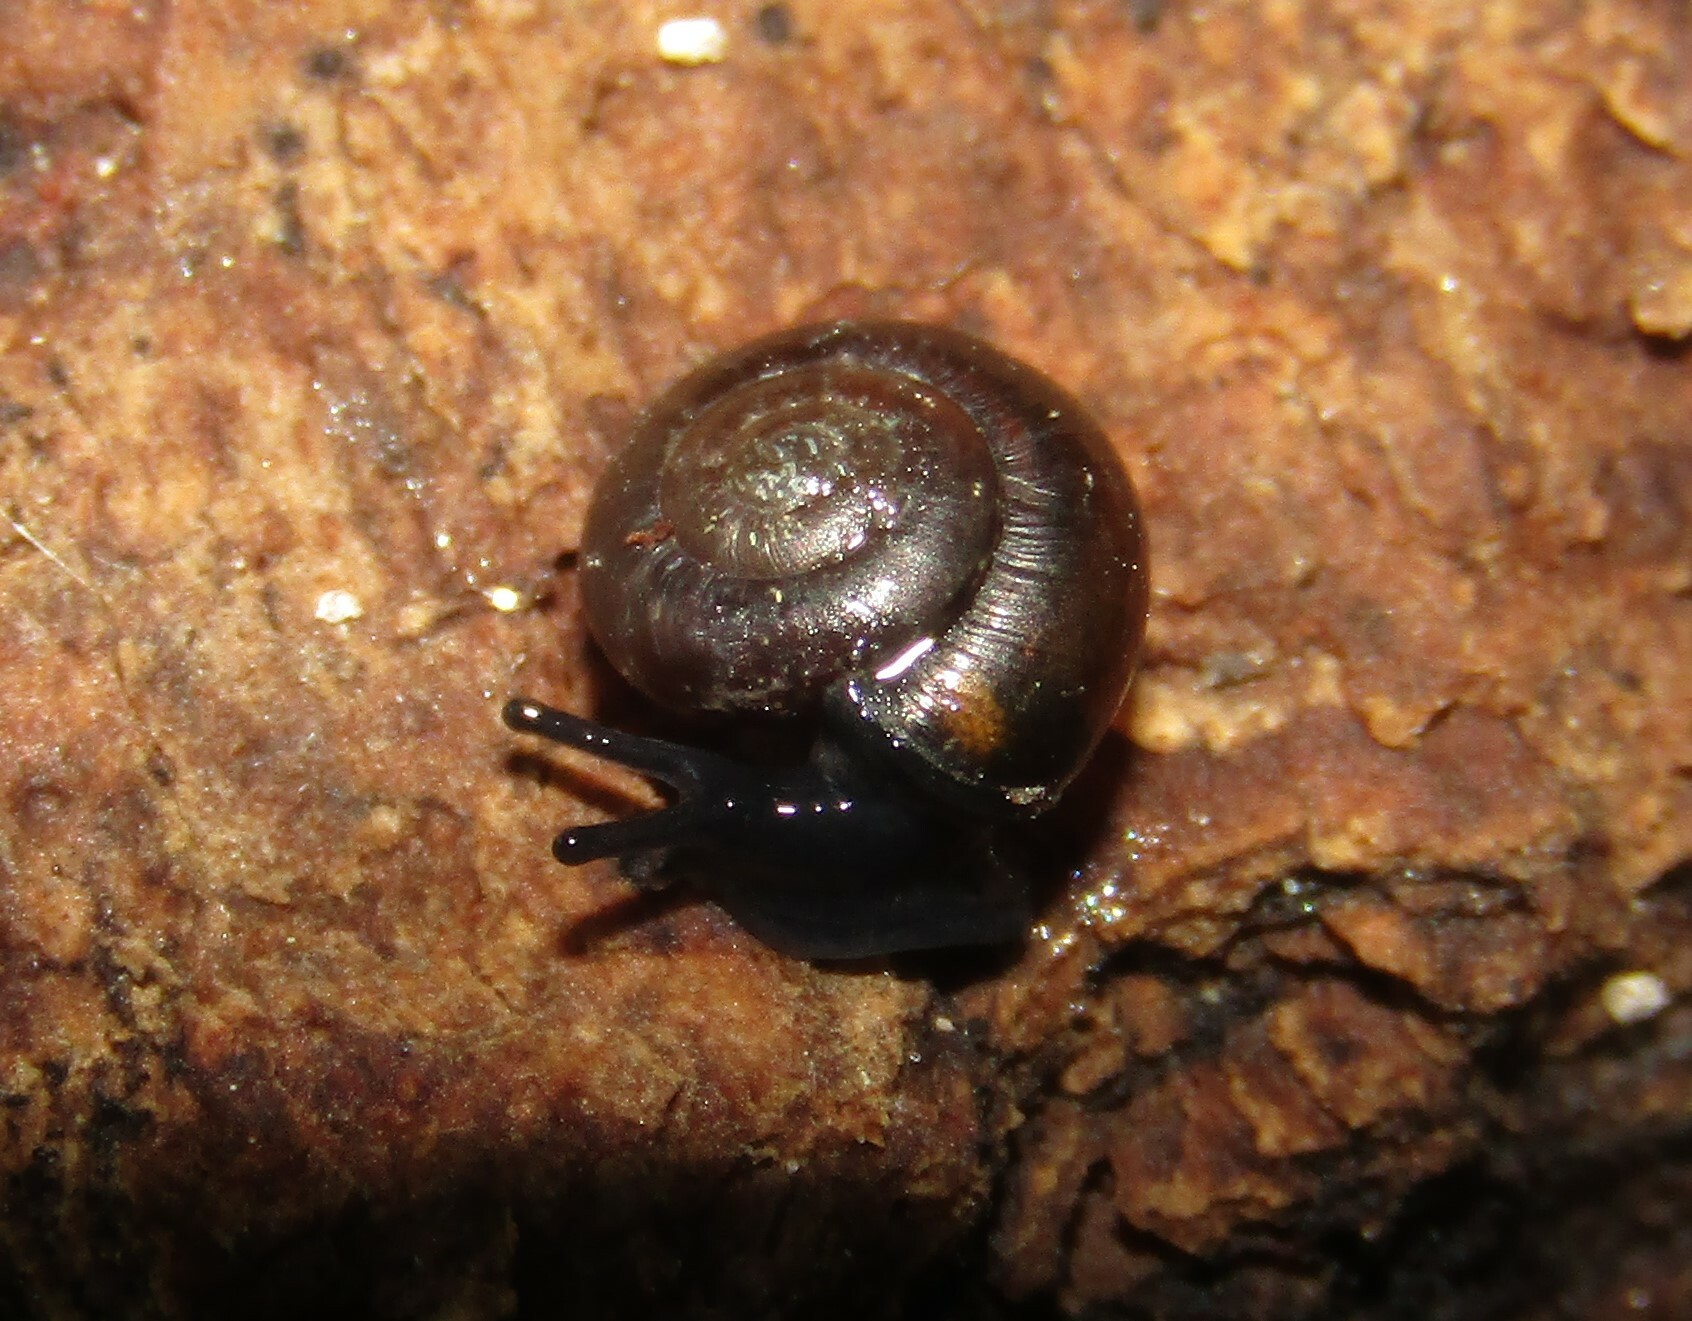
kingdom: Animalia
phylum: Mollusca
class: Gastropoda
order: Stylommatophora
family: Gastrodontidae
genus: Zonitoides
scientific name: Zonitoides nitidus
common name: Shiny glass snail
